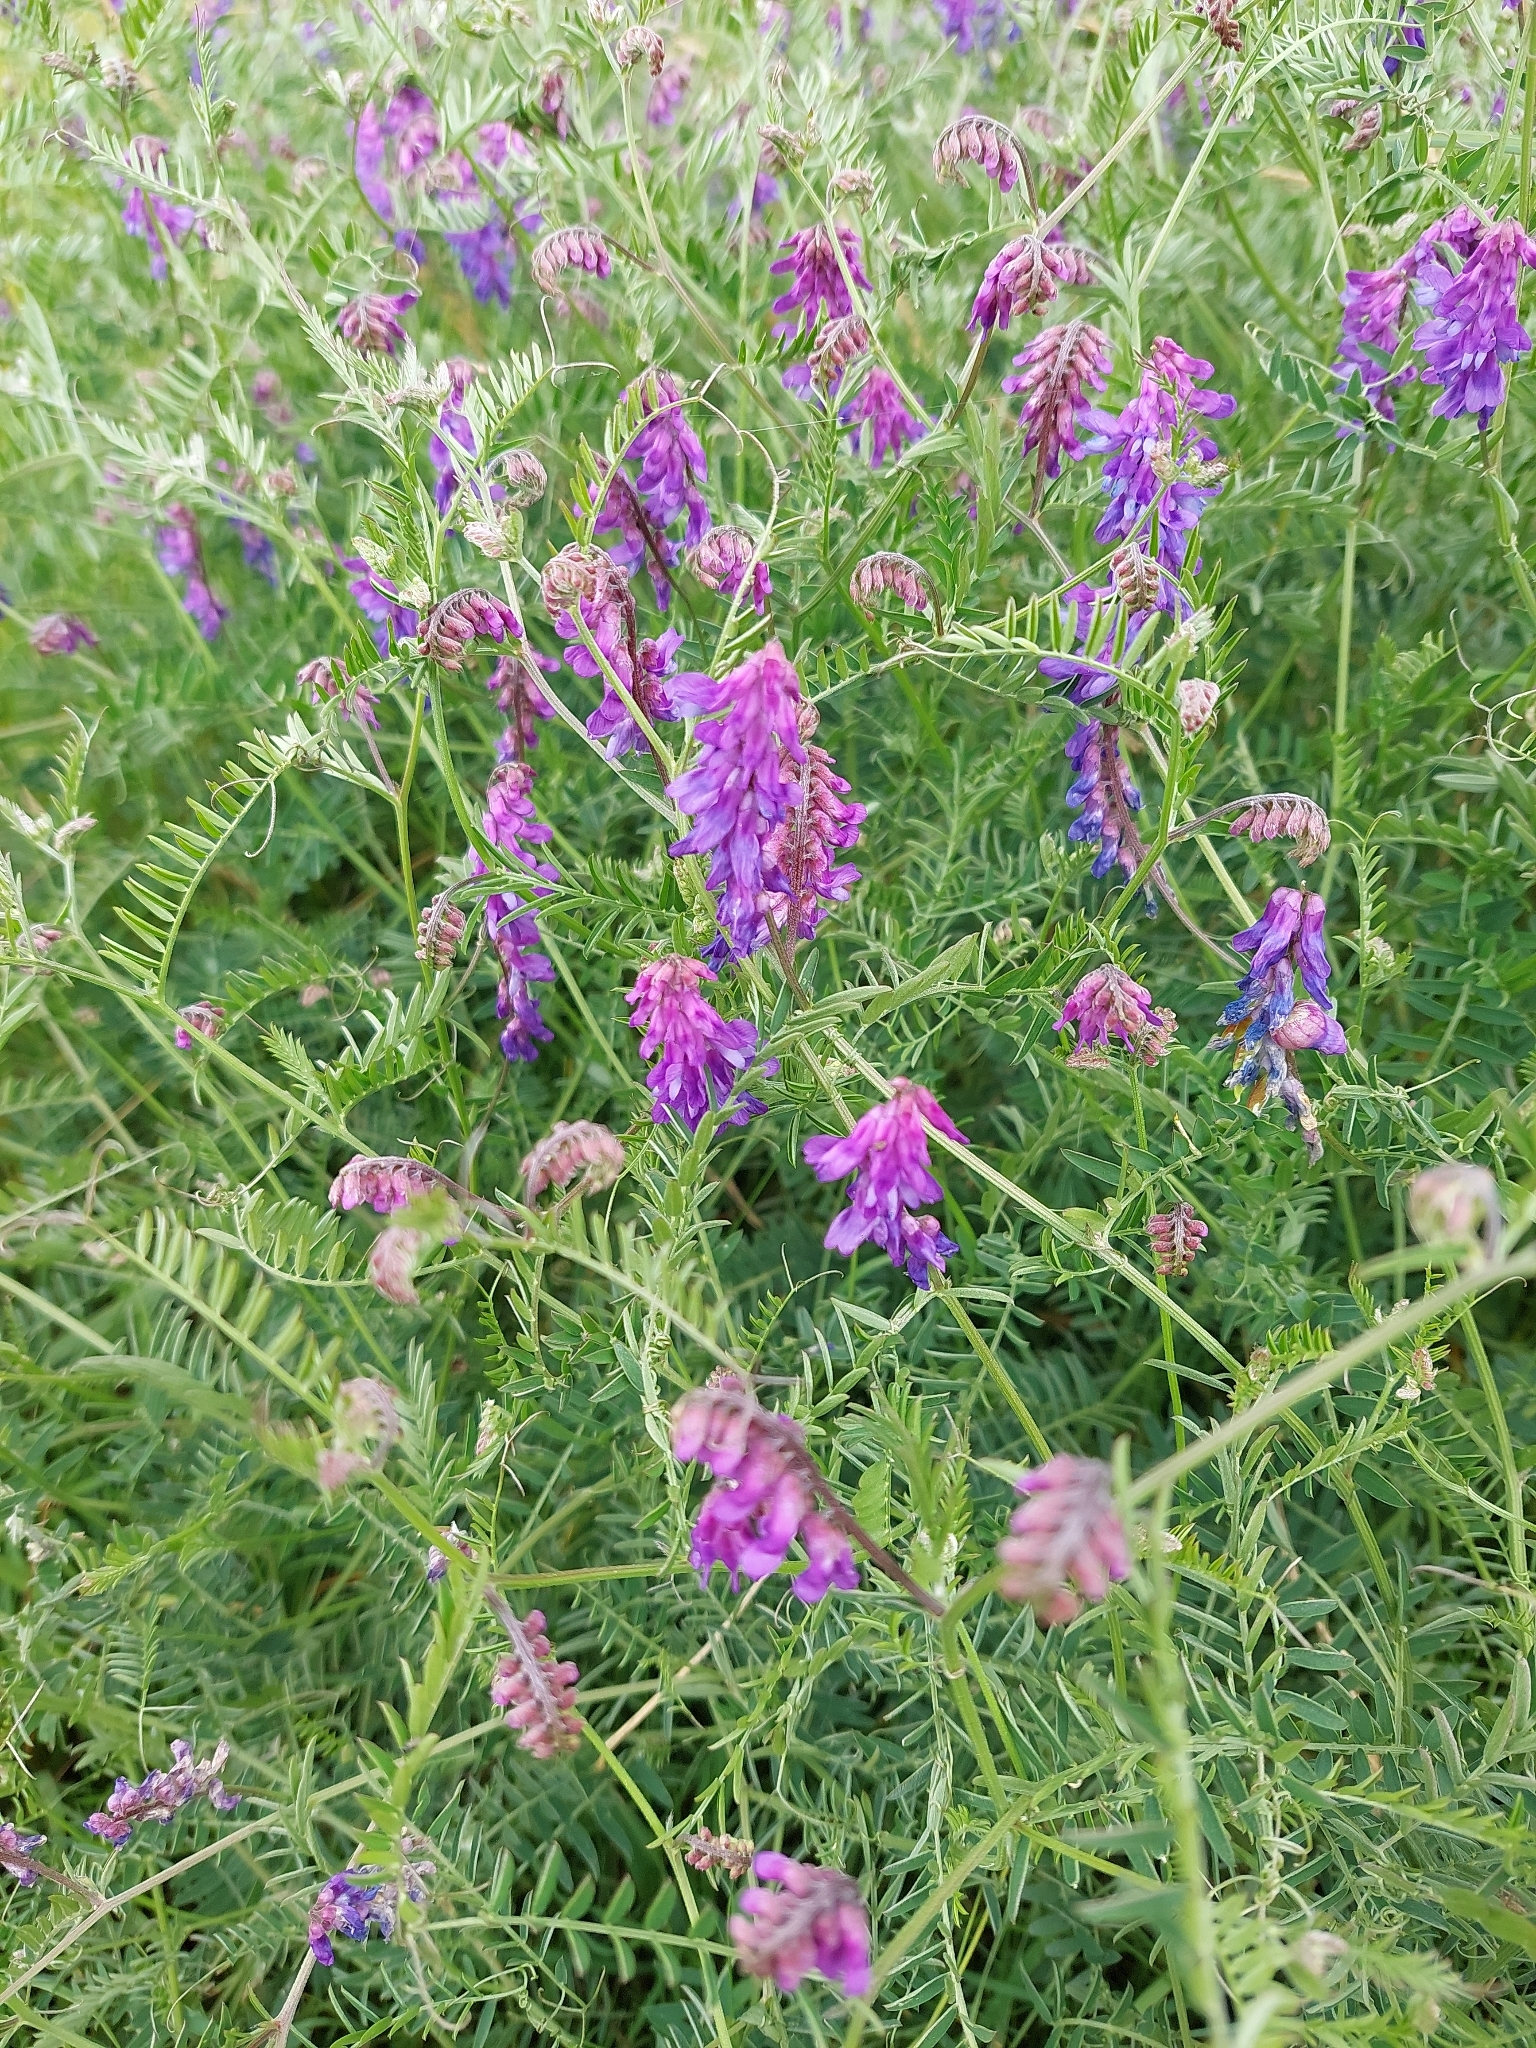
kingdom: Plantae
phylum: Tracheophyta
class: Magnoliopsida
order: Fabales
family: Fabaceae
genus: Vicia
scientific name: Vicia cracca
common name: Bird vetch
